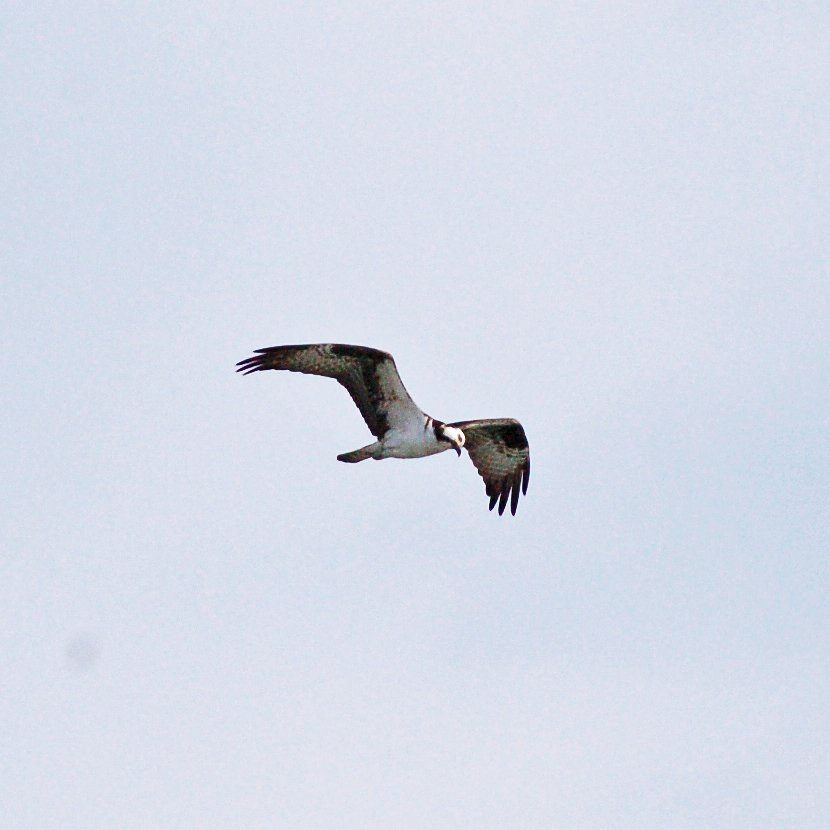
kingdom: Animalia
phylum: Chordata
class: Aves
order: Accipitriformes
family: Pandionidae
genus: Pandion
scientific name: Pandion haliaetus
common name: Osprey
